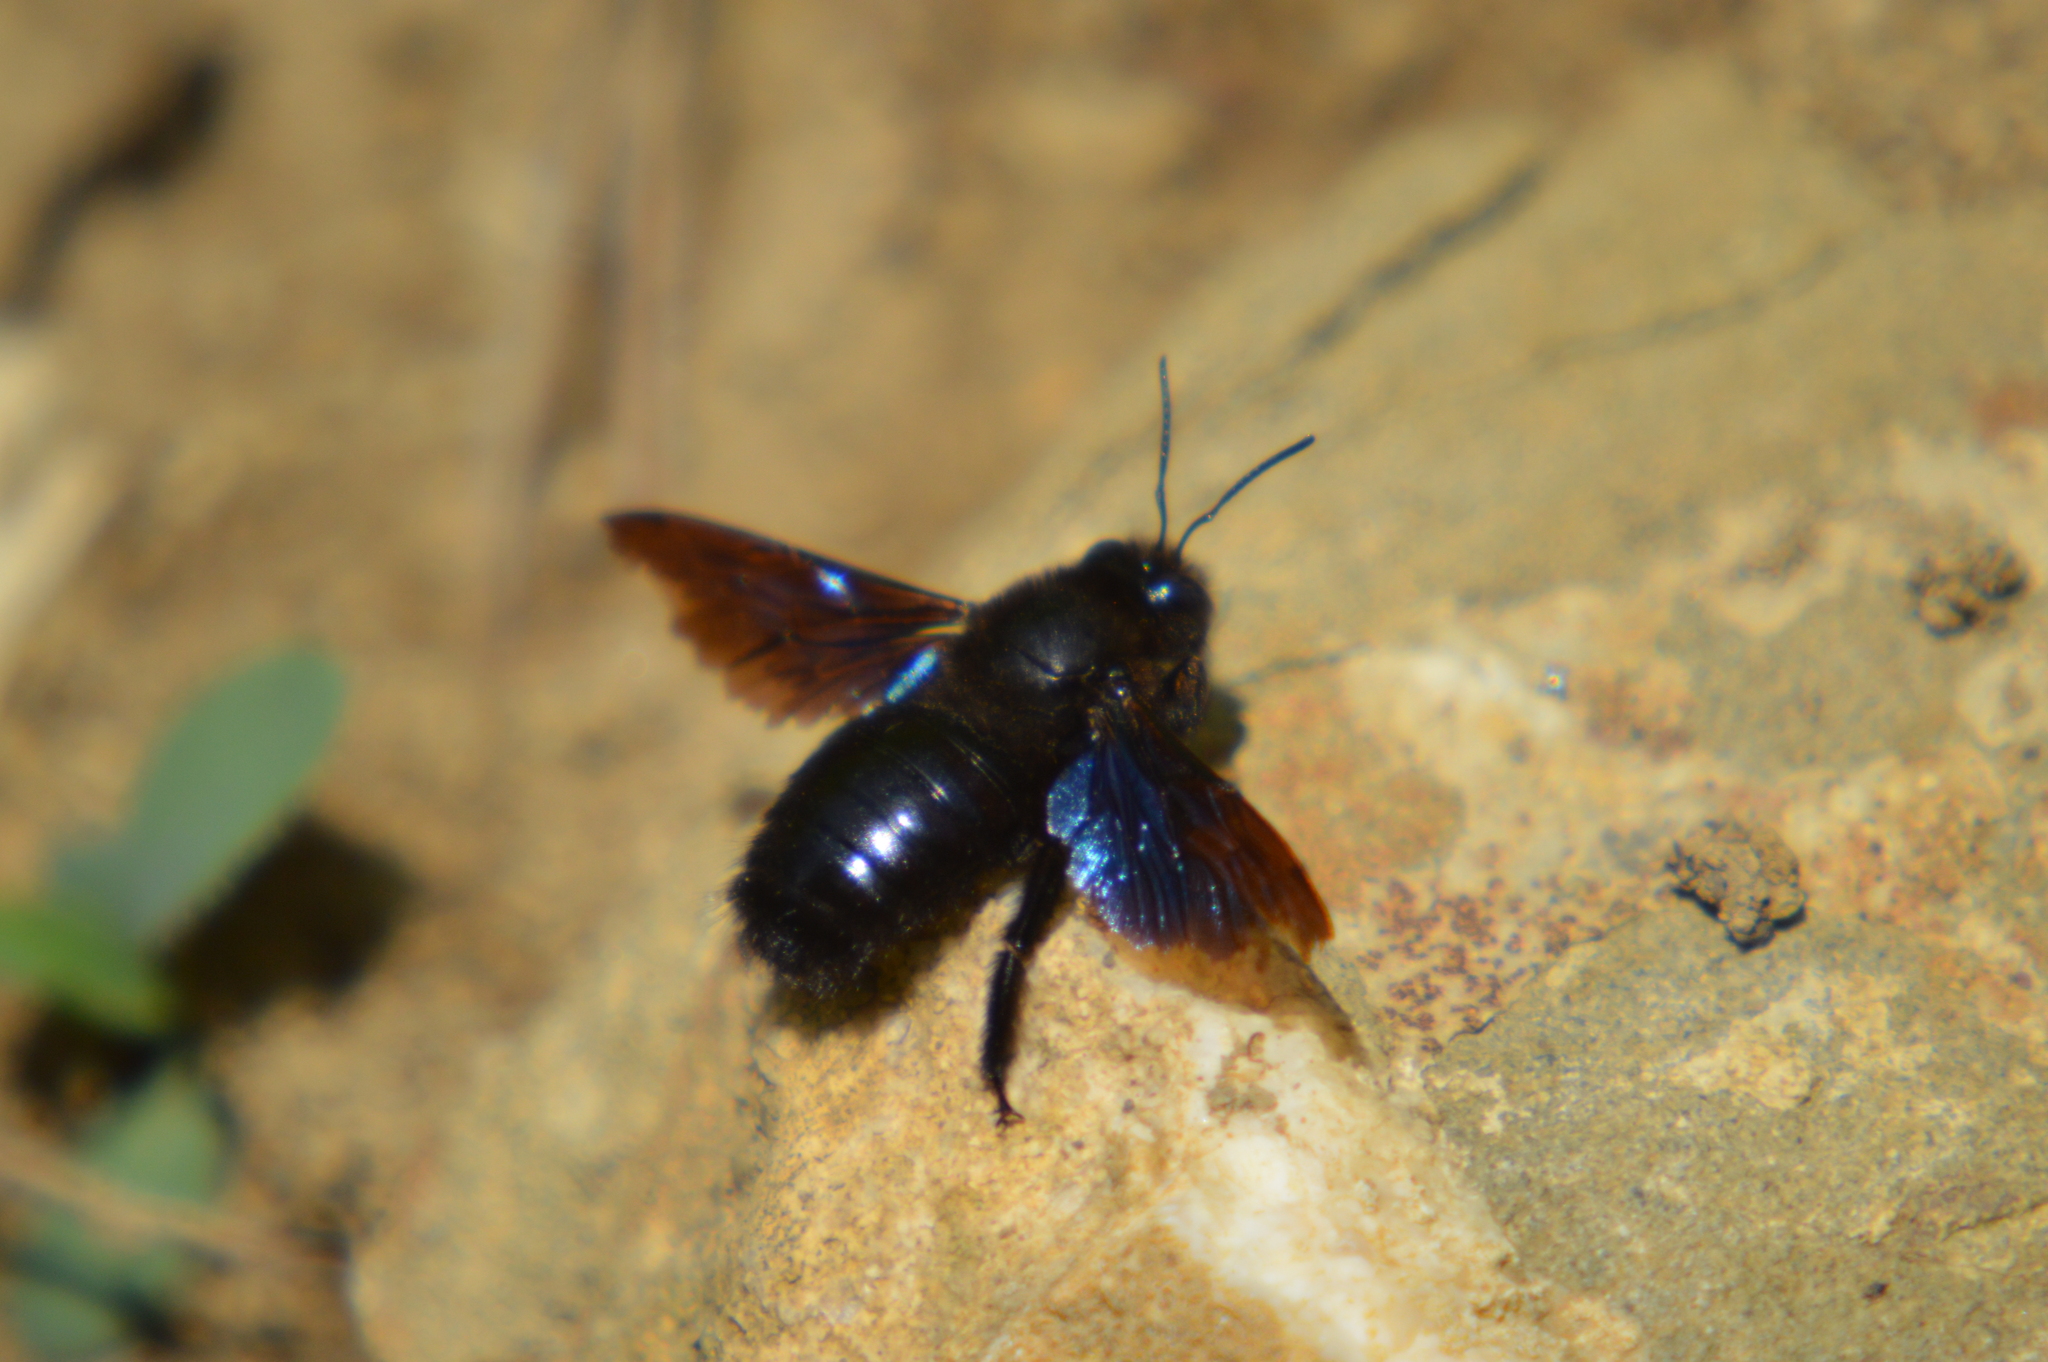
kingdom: Animalia
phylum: Arthropoda
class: Insecta
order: Hymenoptera
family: Apidae
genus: Xylocopa
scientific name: Xylocopa valga
